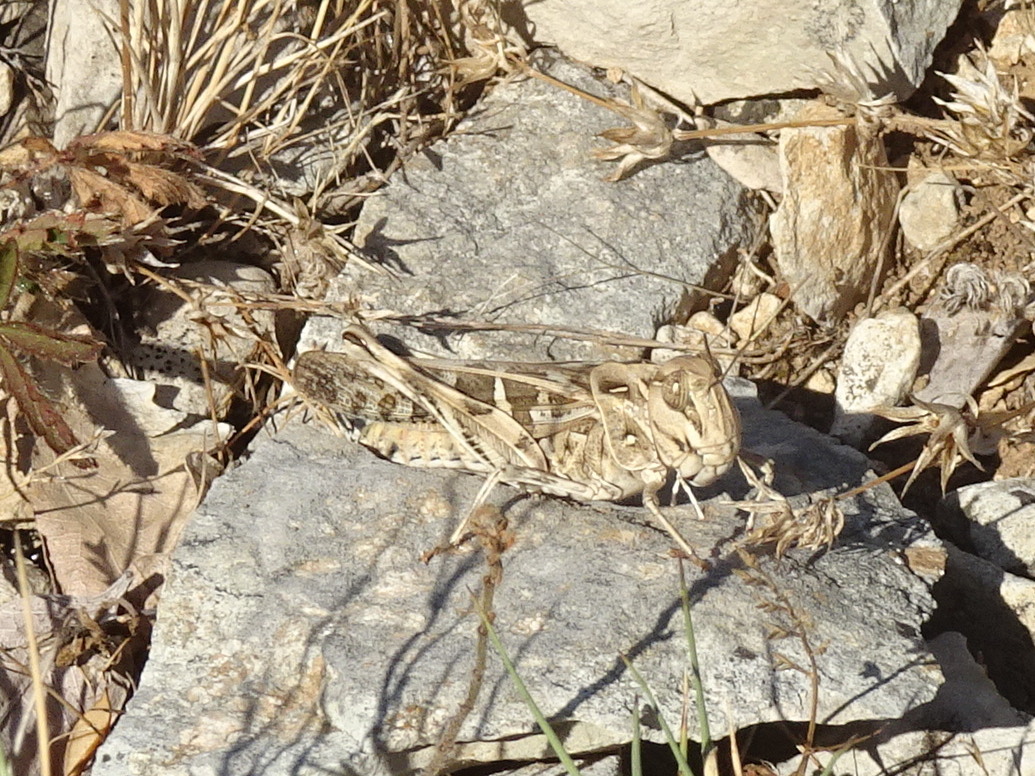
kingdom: Animalia
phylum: Arthropoda
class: Insecta
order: Orthoptera
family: Acrididae
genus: Oedaleus
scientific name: Oedaleus decorus
